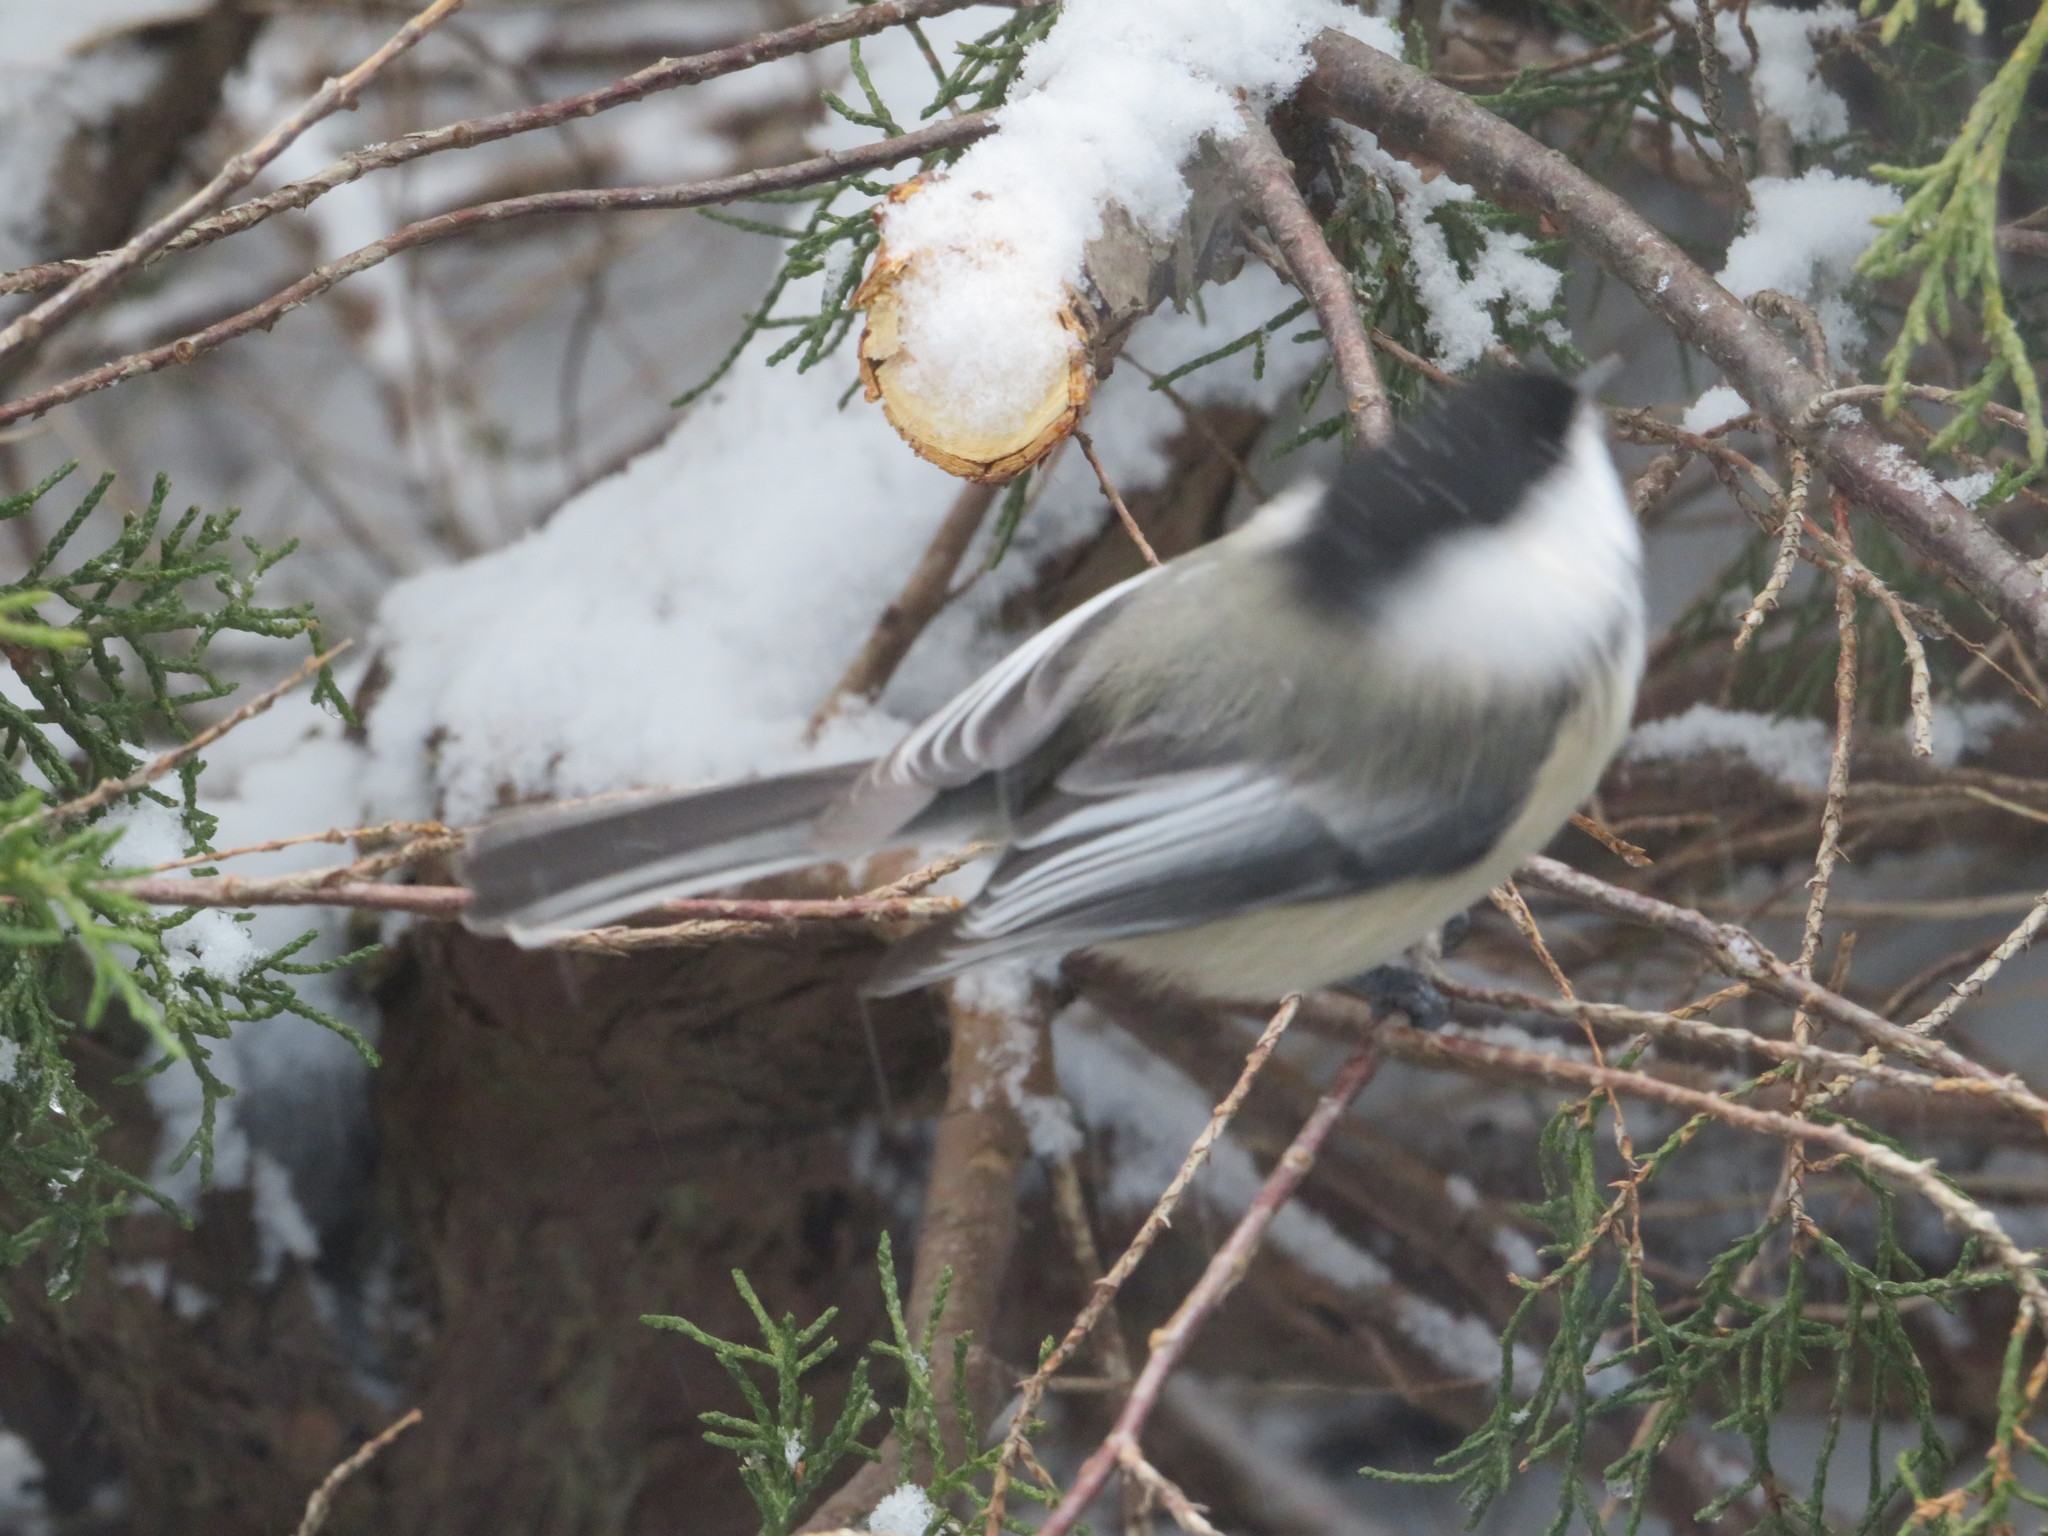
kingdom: Animalia
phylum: Chordata
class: Aves
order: Passeriformes
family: Paridae
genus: Poecile
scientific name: Poecile atricapillus
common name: Black-capped chickadee
